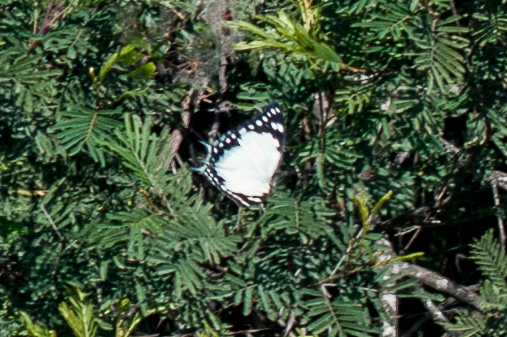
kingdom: Animalia
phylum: Arthropoda
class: Insecta
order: Lepidoptera
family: Nymphalidae
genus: Charaxes
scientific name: Charaxes
